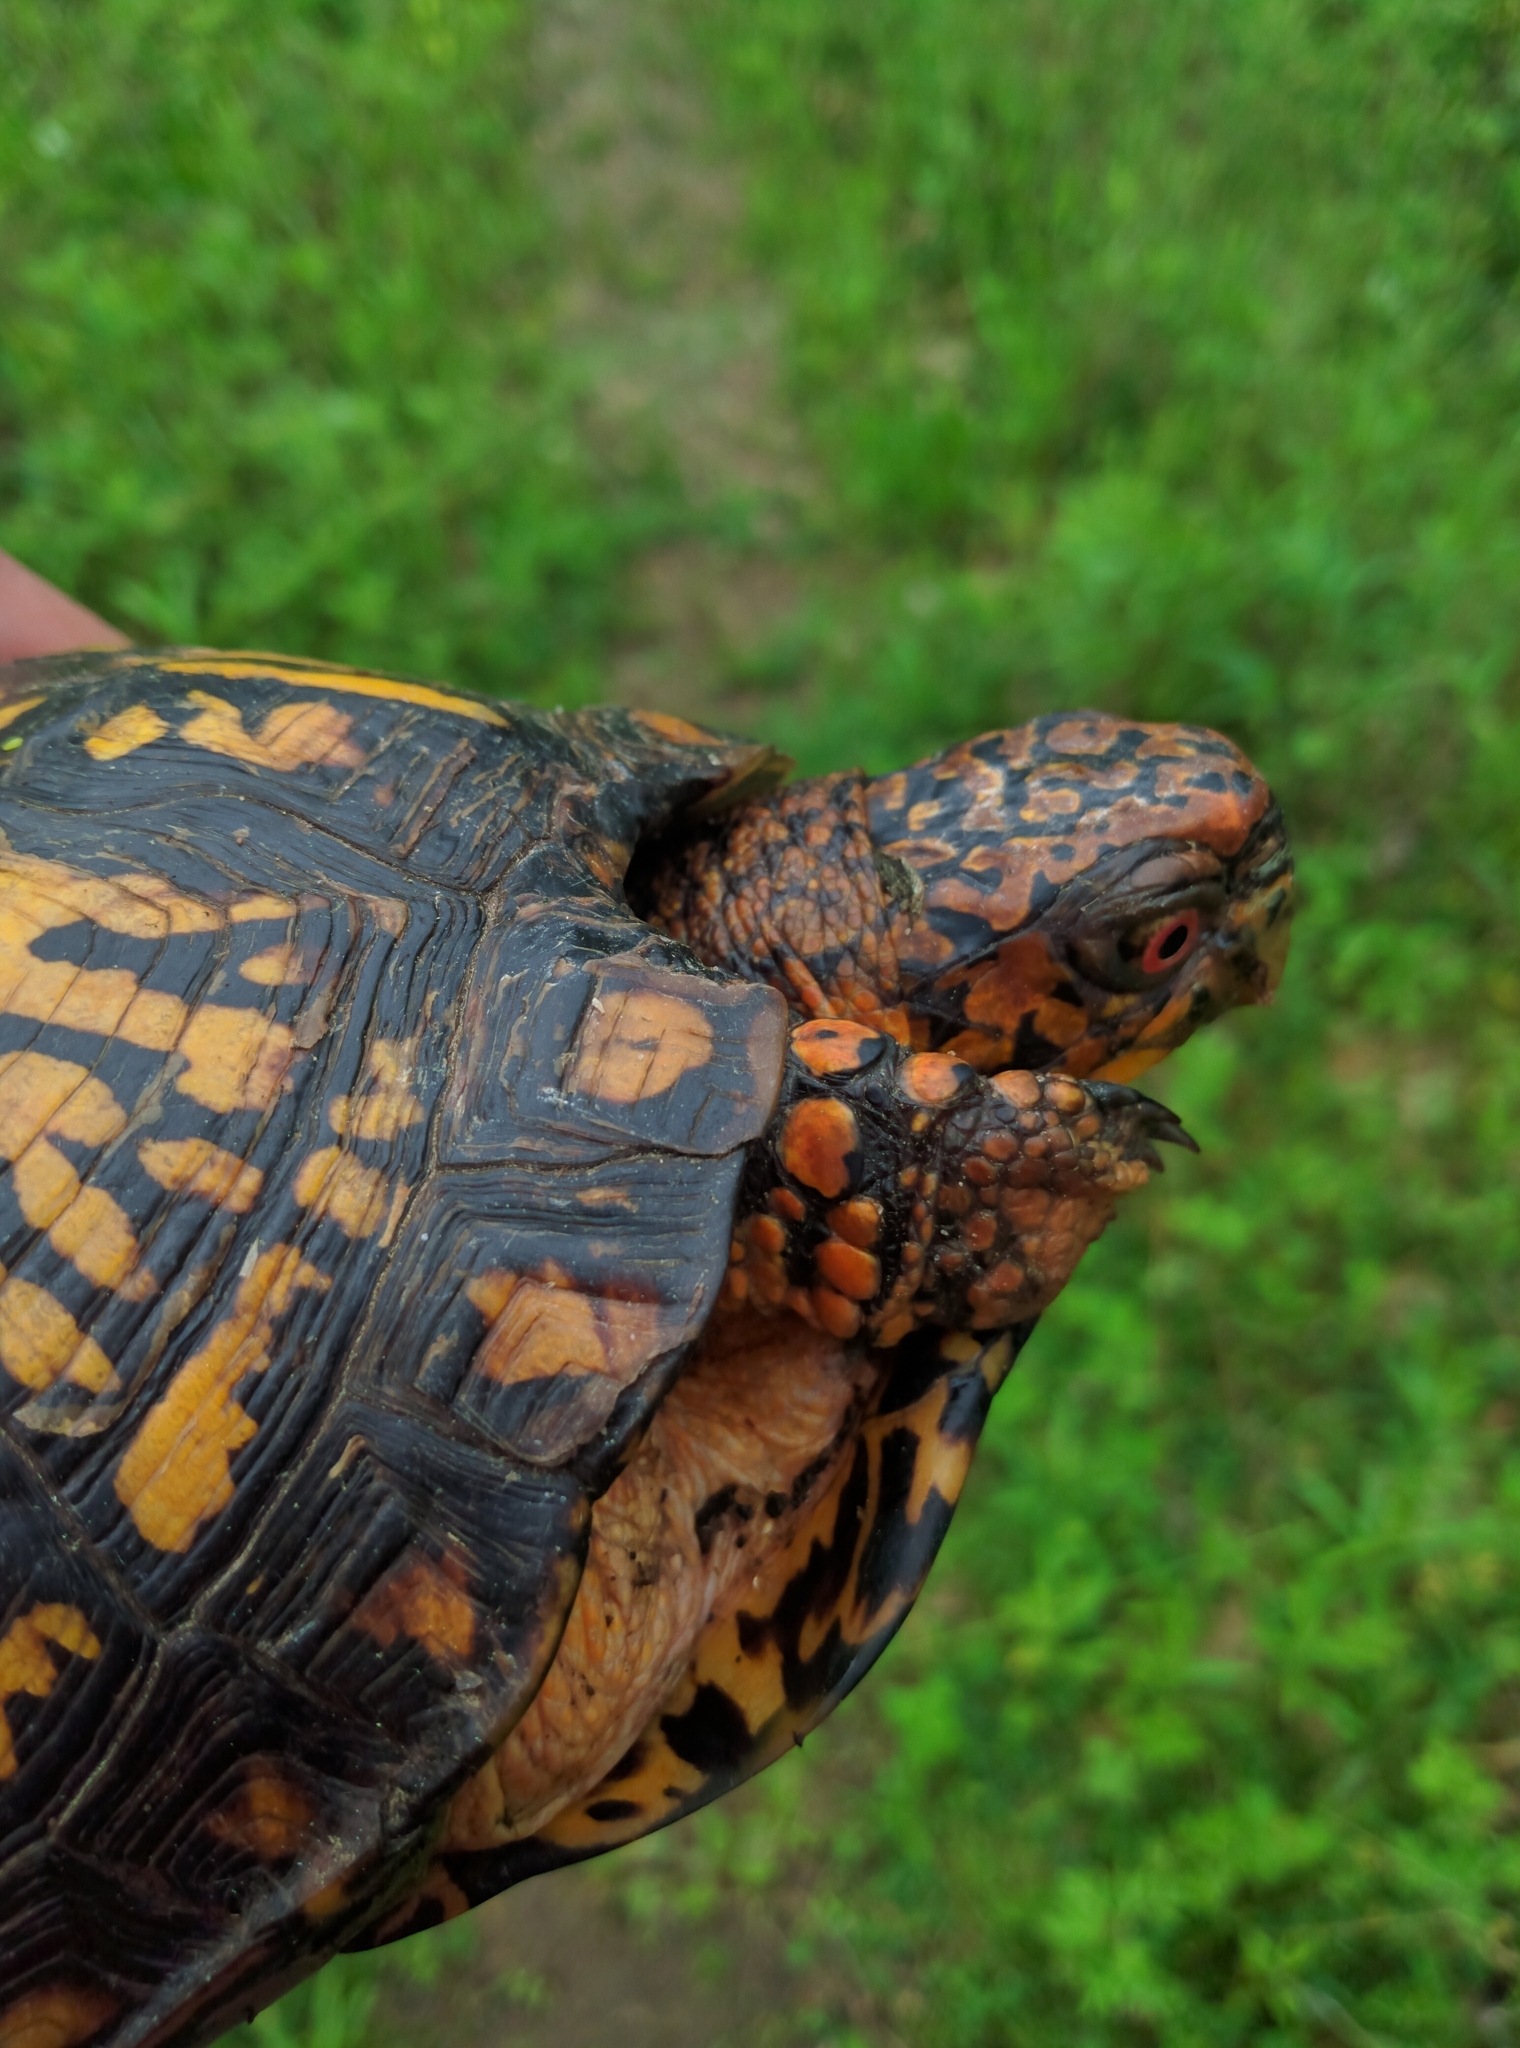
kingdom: Animalia
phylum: Chordata
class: Testudines
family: Emydidae
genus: Terrapene
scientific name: Terrapene carolina
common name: Common box turtle
